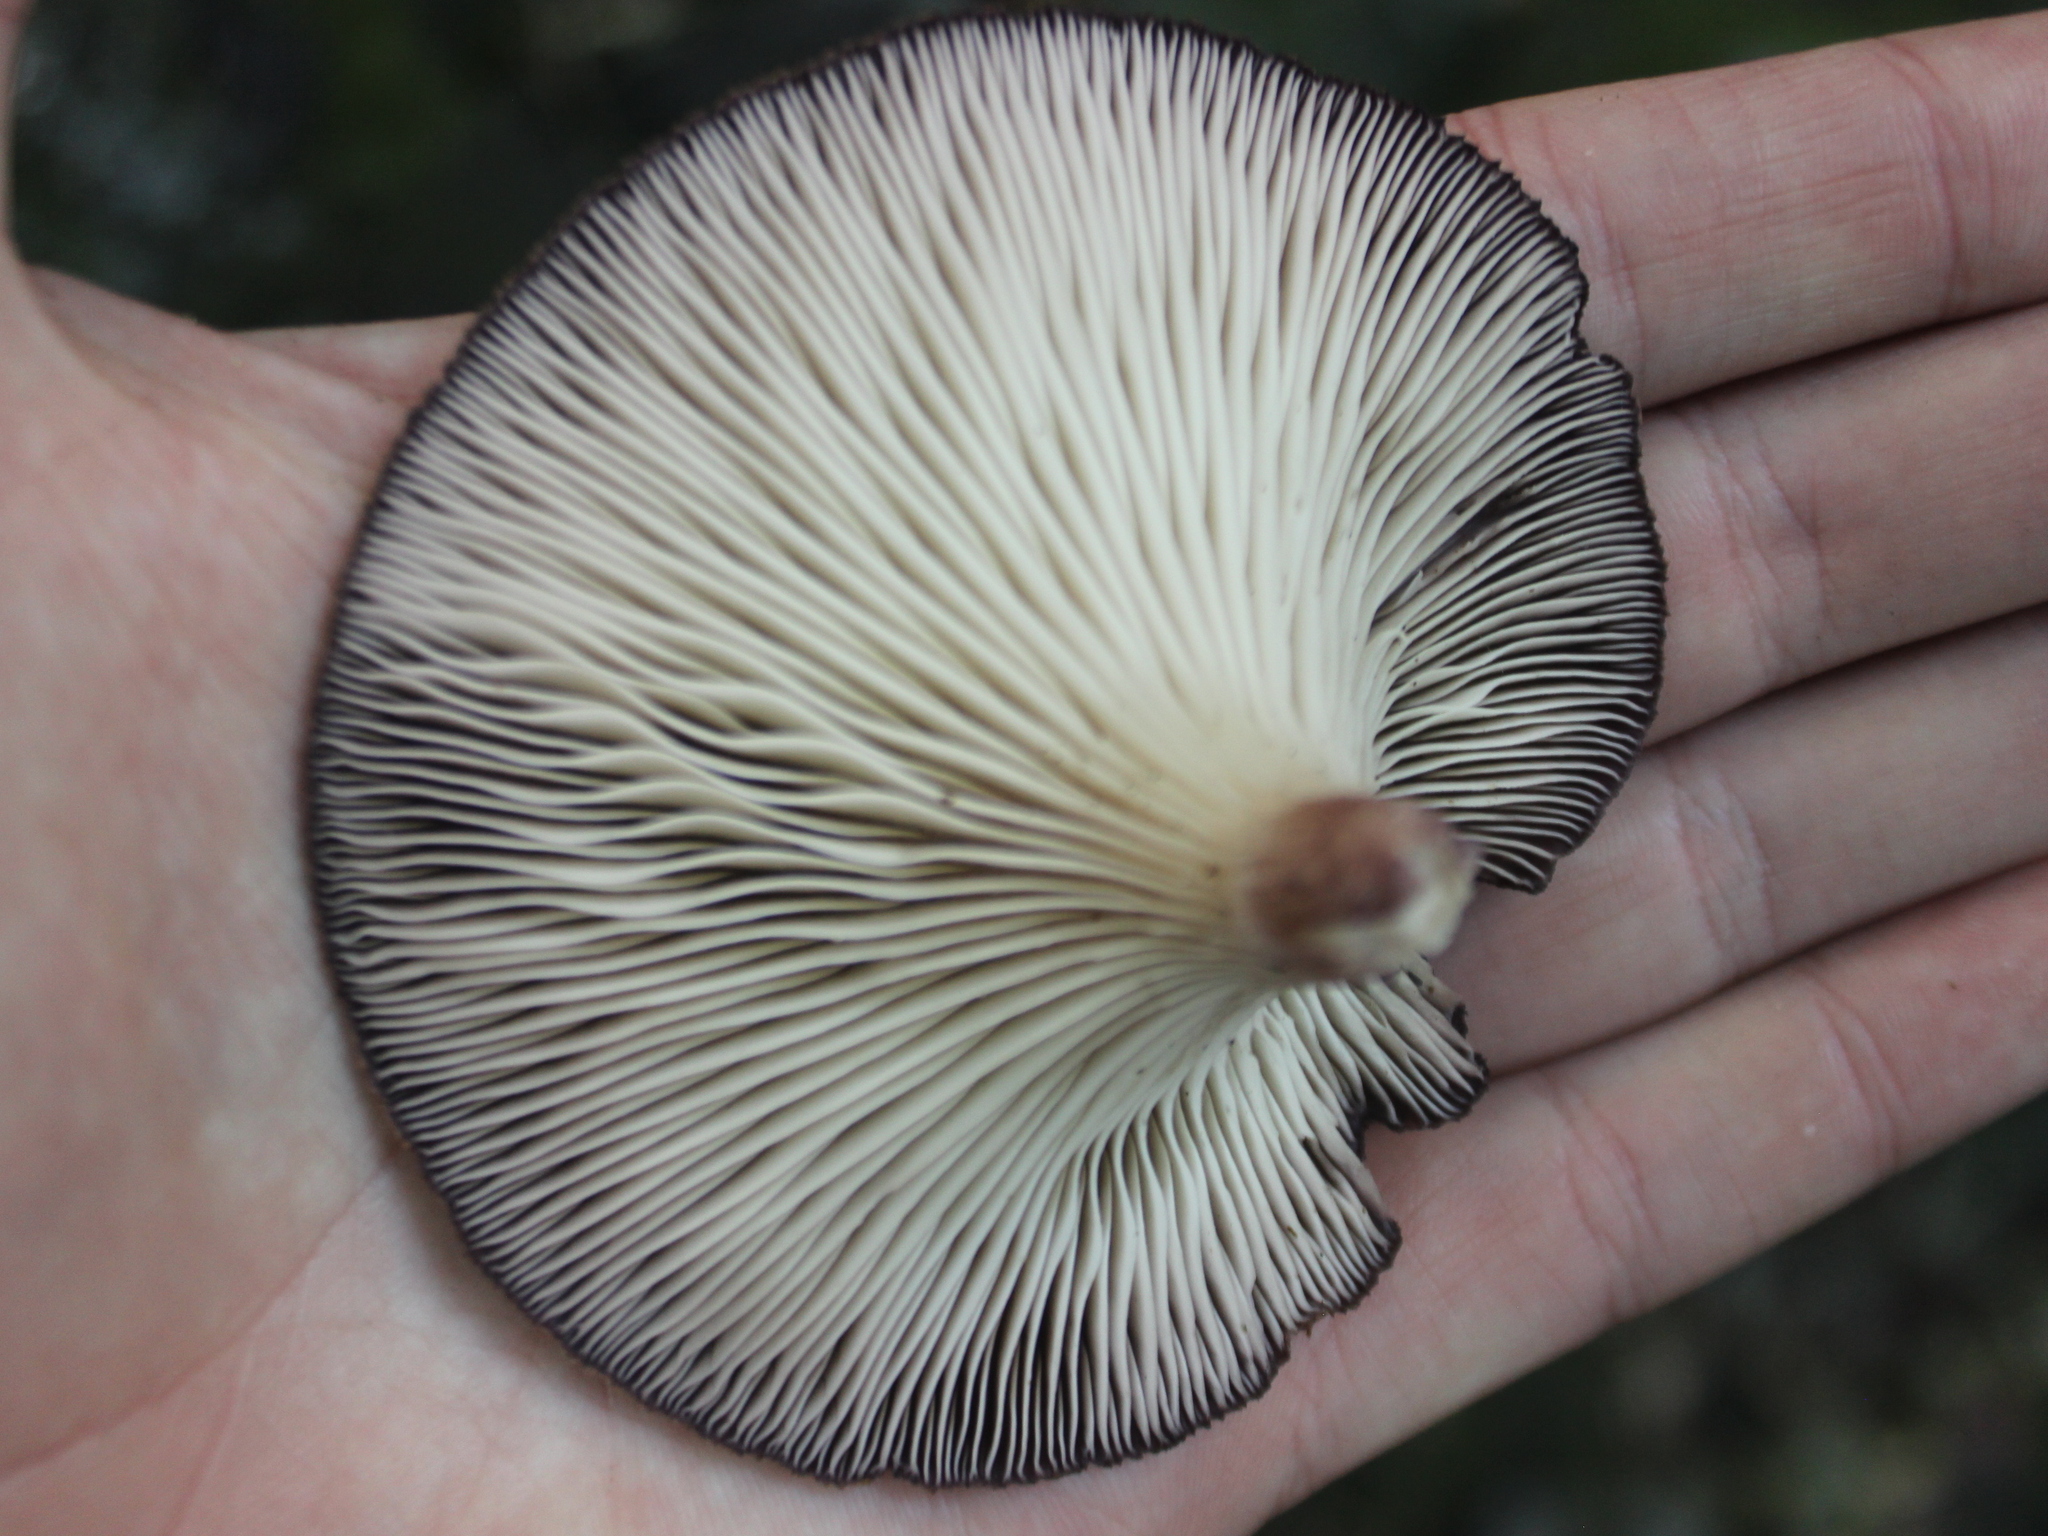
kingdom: Fungi
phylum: Basidiomycota
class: Agaricomycetes
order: Polyporales
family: Panaceae
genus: Panus
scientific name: Panus purpuratus
